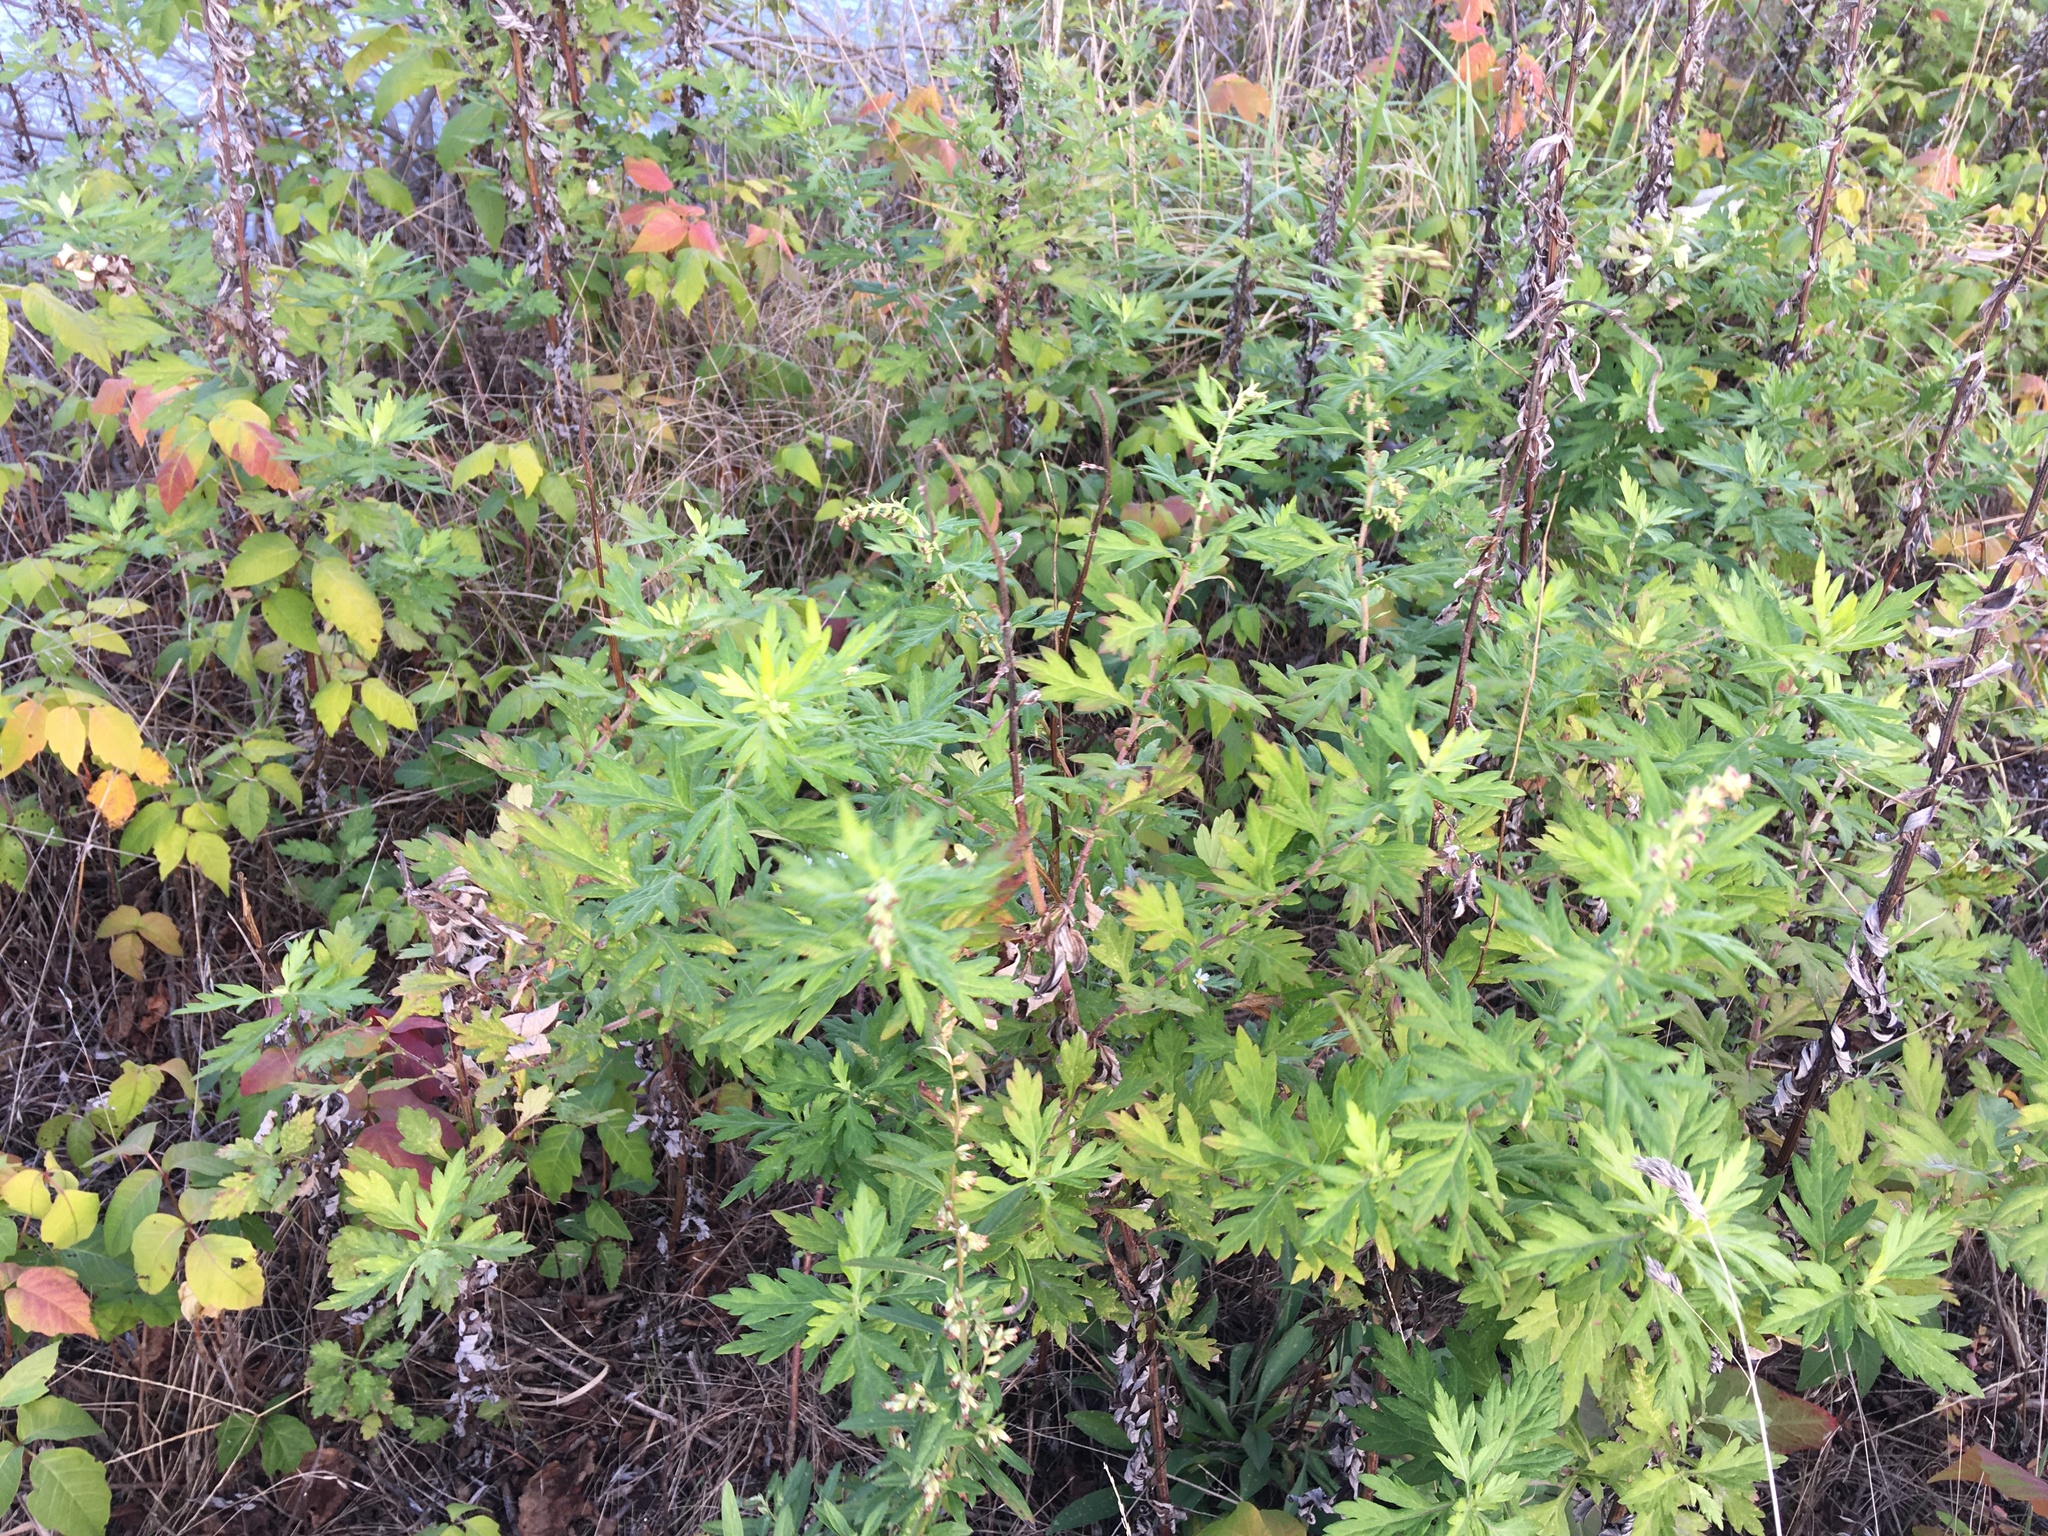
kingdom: Plantae
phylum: Tracheophyta
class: Magnoliopsida
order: Asterales
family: Asteraceae
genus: Artemisia
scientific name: Artemisia vulgaris
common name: Mugwort
